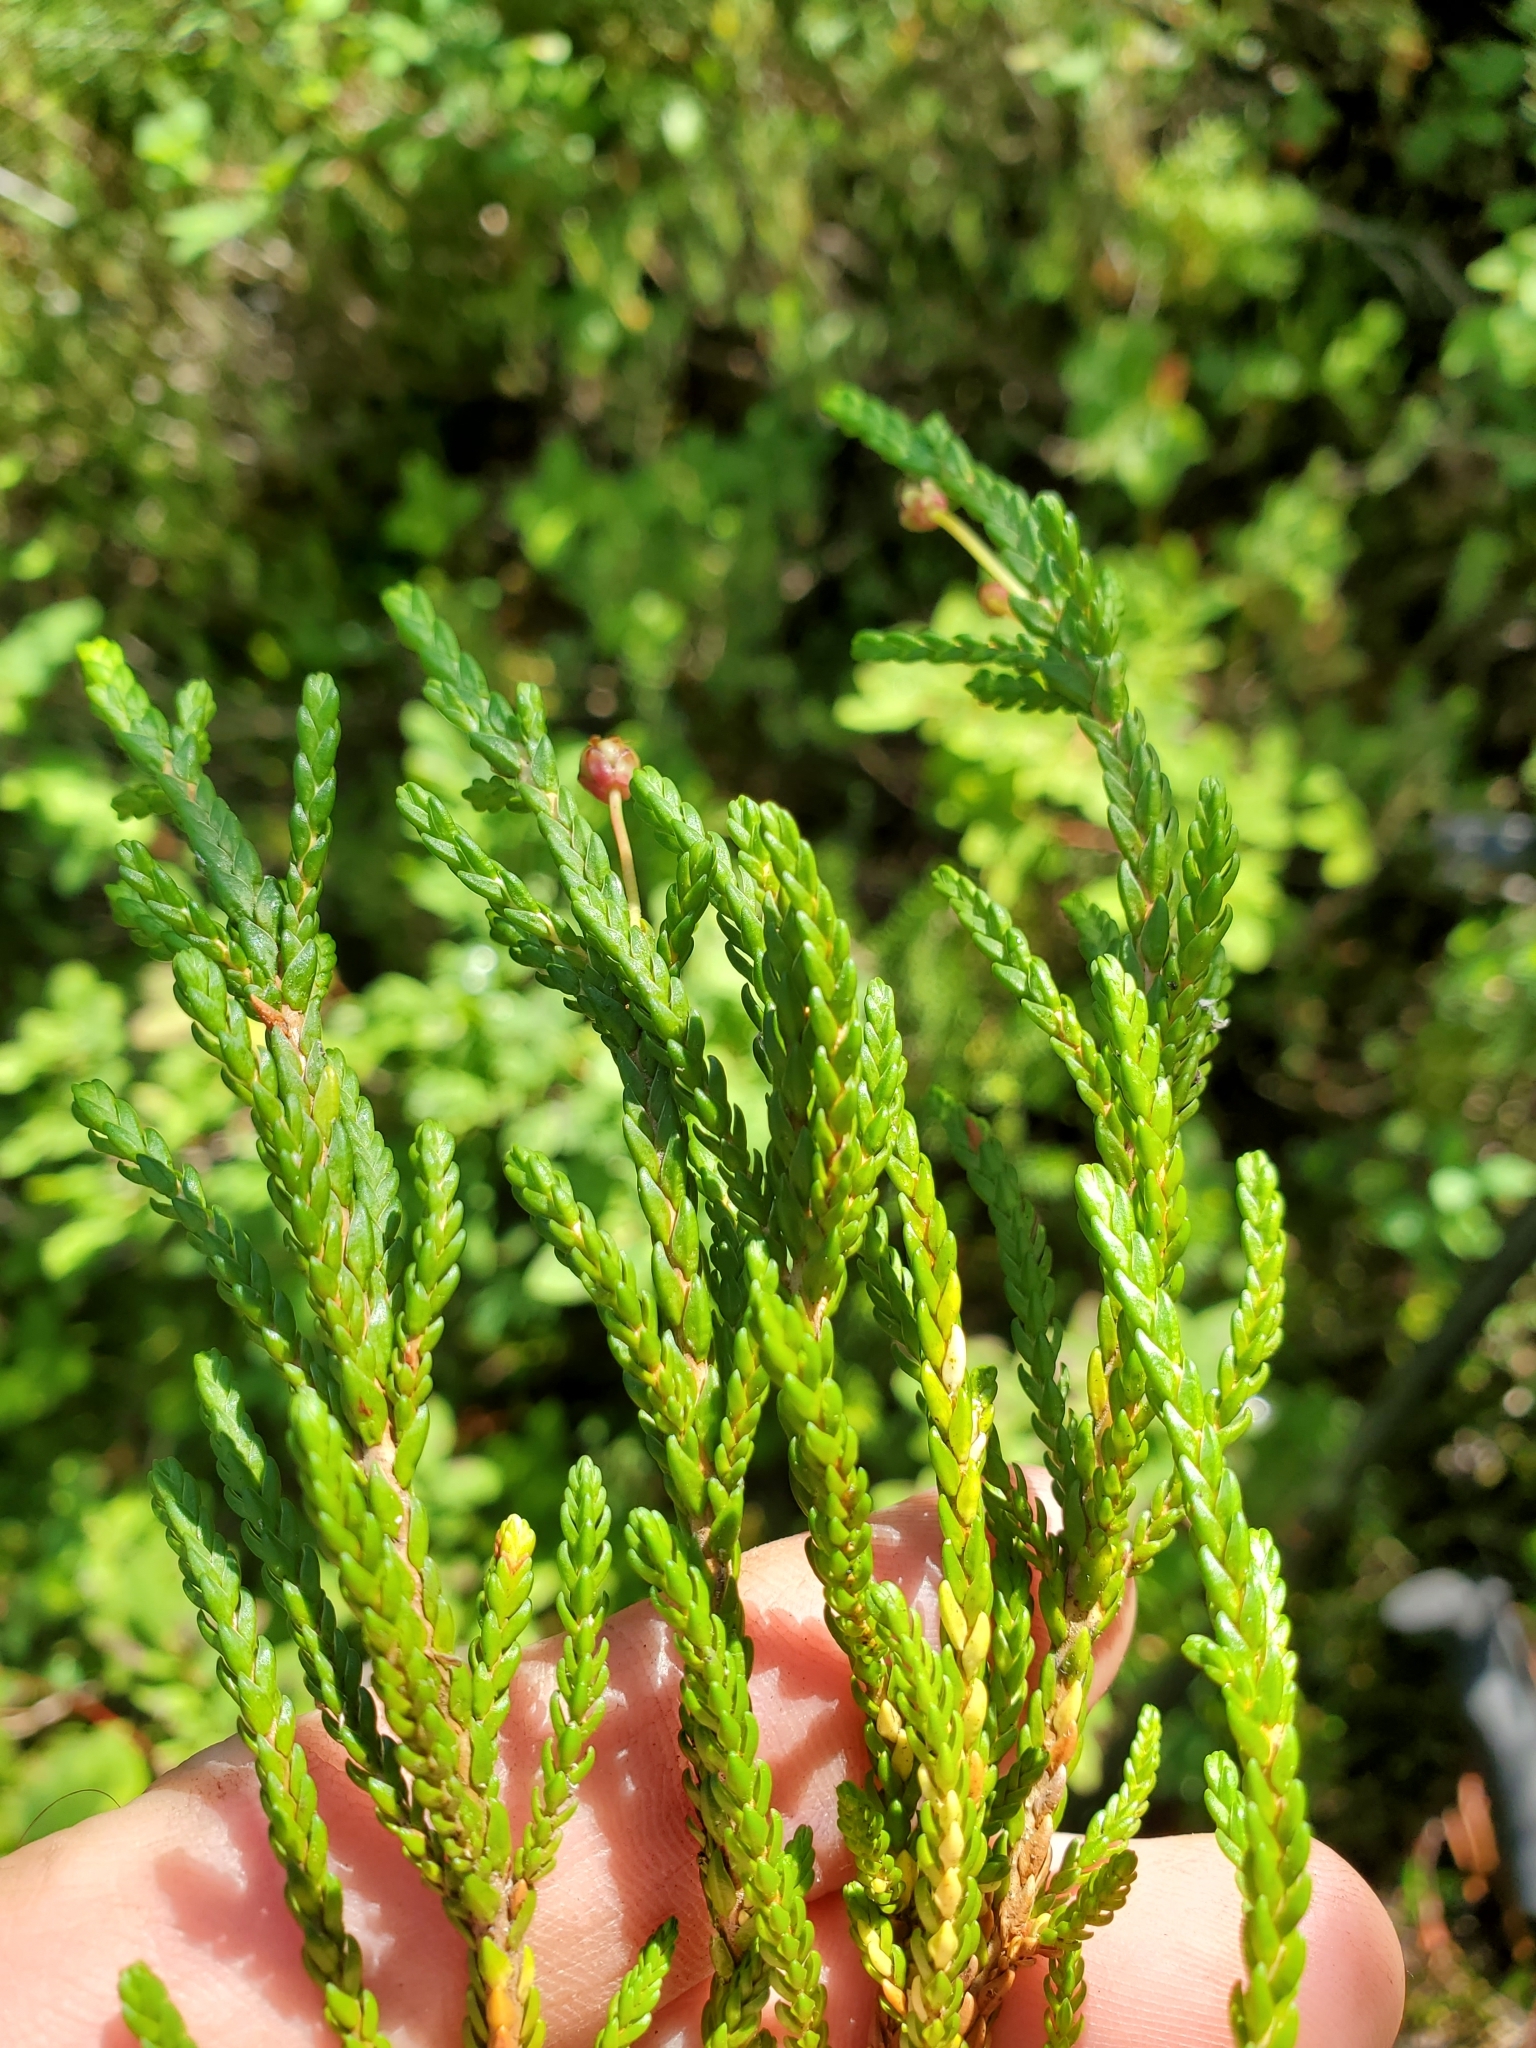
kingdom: Plantae
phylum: Tracheophyta
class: Magnoliopsida
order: Ericales
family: Ericaceae
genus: Cassiope
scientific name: Cassiope mertensiana
